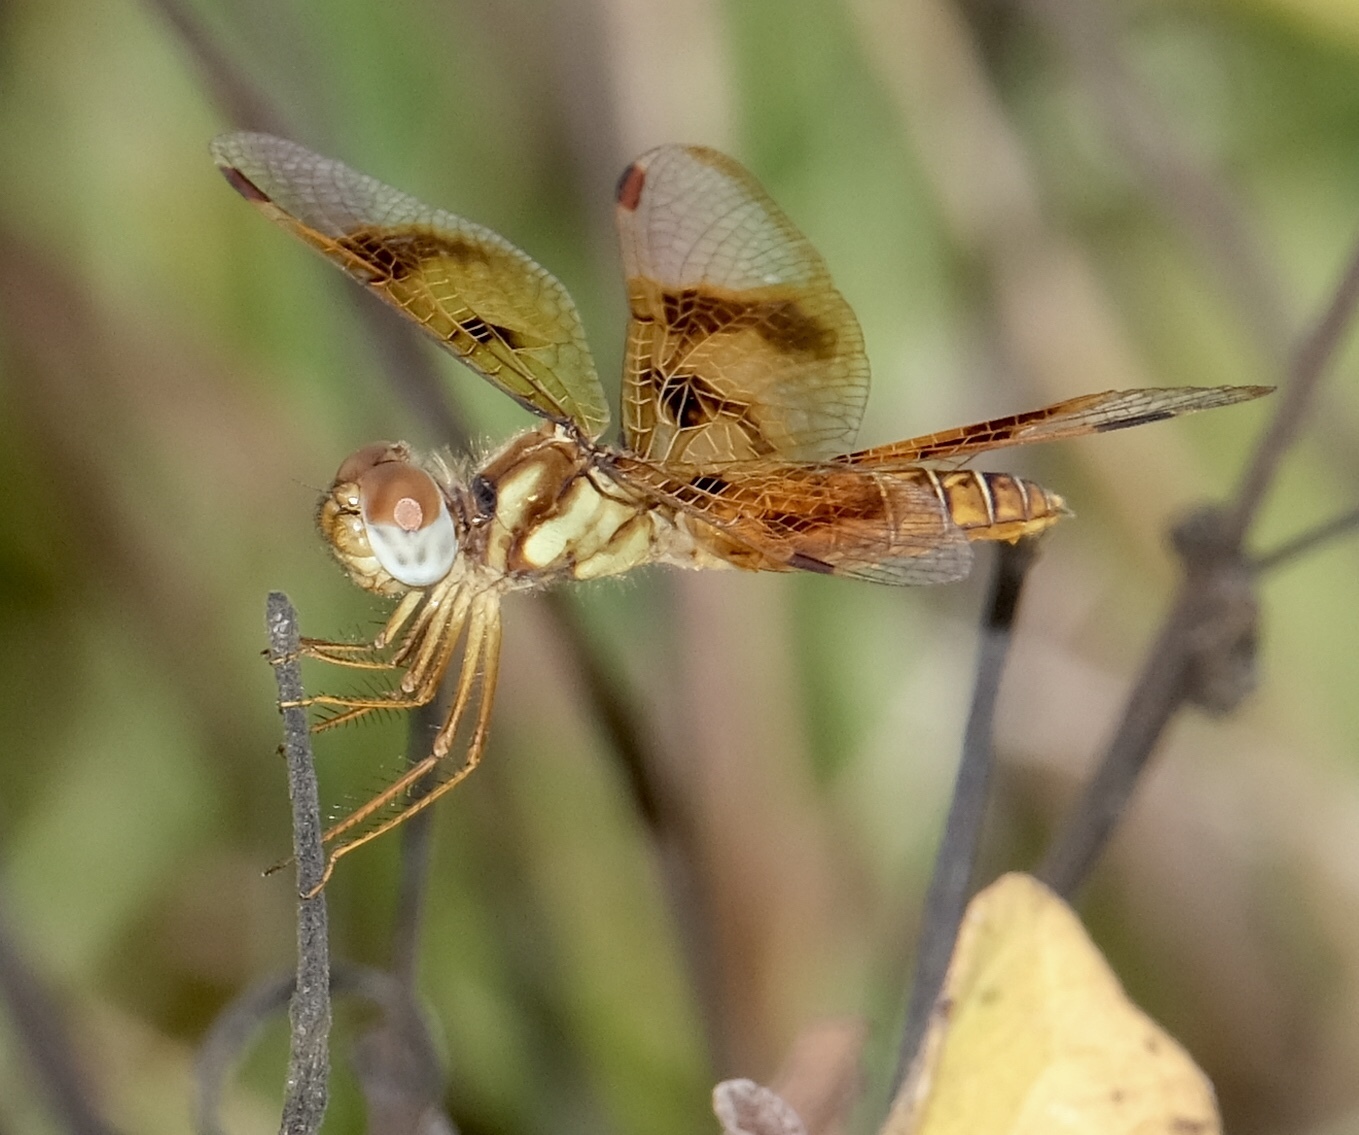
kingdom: Animalia
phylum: Arthropoda
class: Insecta
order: Odonata
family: Libellulidae
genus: Perithemis
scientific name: Perithemis tenera
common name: Eastern amberwing
